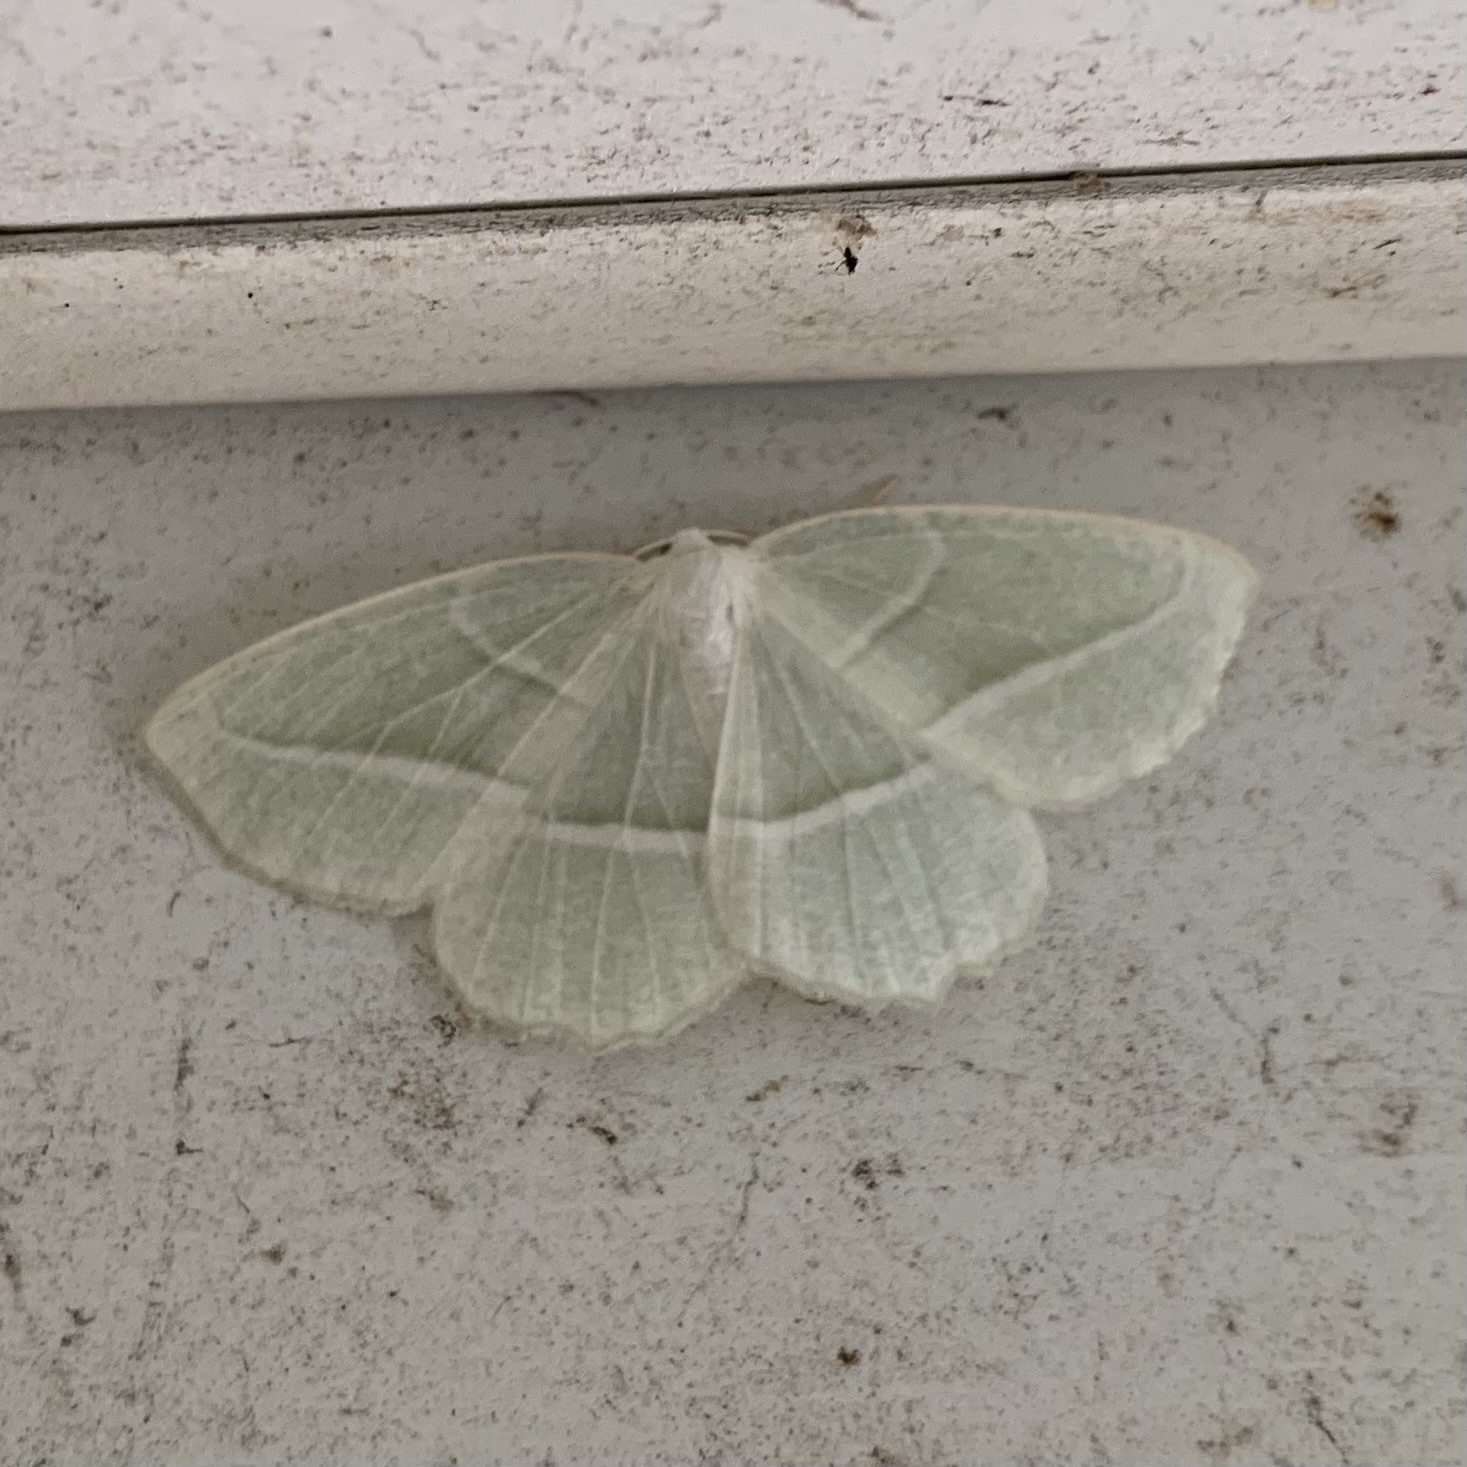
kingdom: Animalia
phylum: Arthropoda
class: Insecta
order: Lepidoptera
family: Geometridae
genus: Campaea
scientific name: Campaea perlata
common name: Fringed looper
